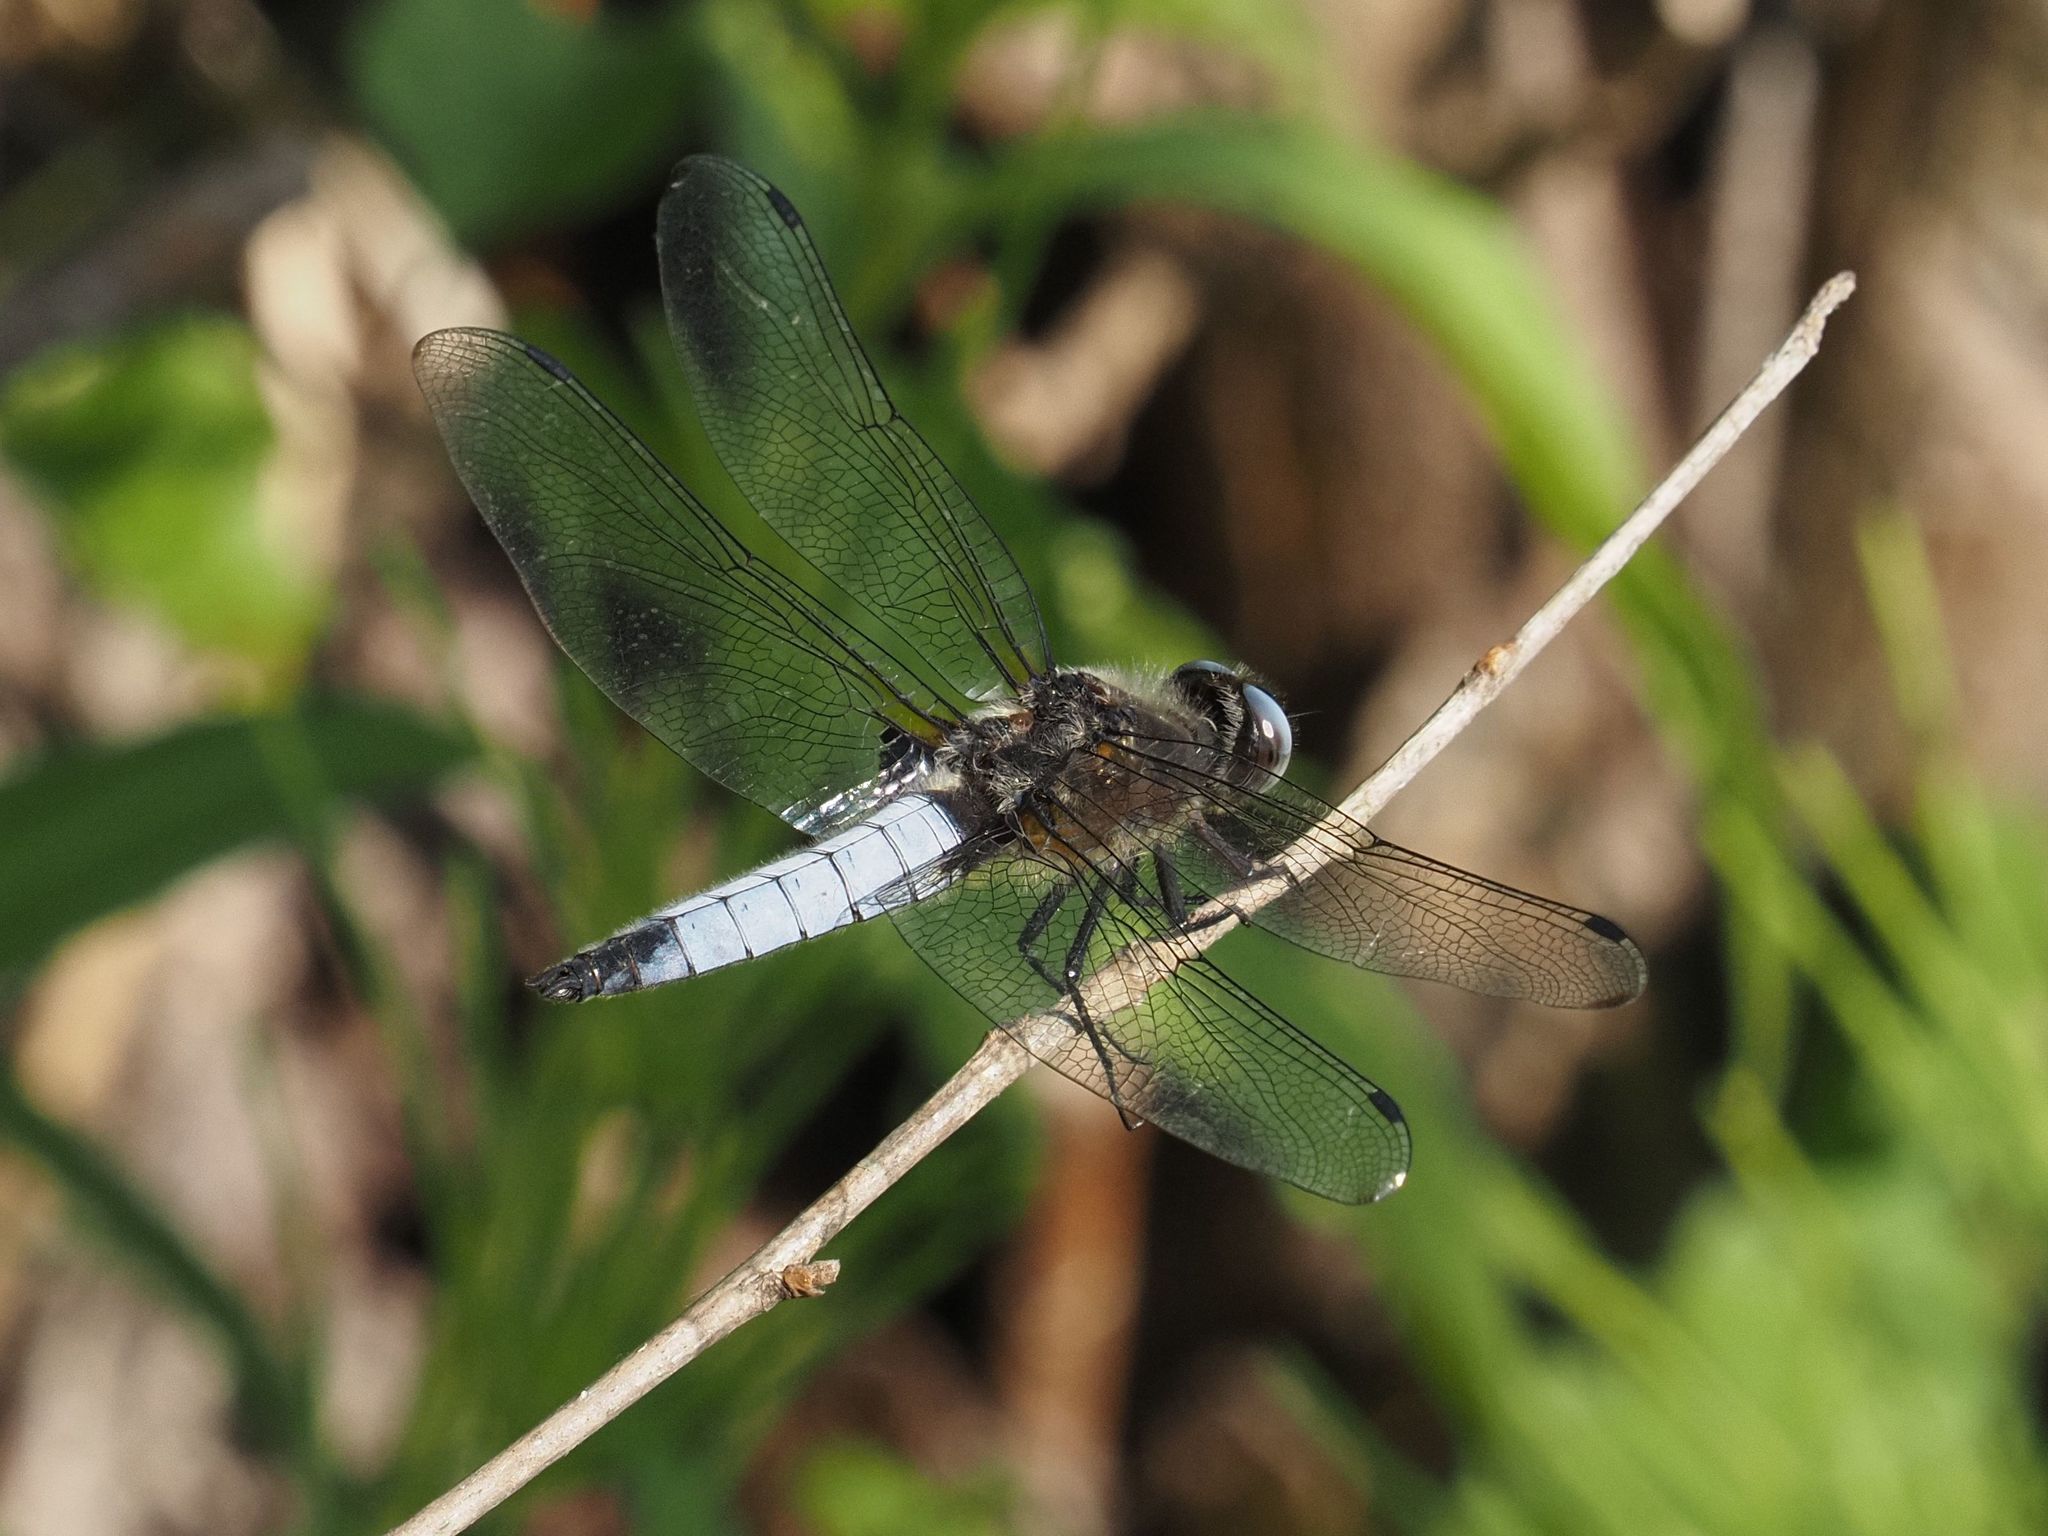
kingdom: Animalia
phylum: Arthropoda
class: Insecta
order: Odonata
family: Libellulidae
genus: Libellula
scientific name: Libellula fulva
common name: Blue chaser
